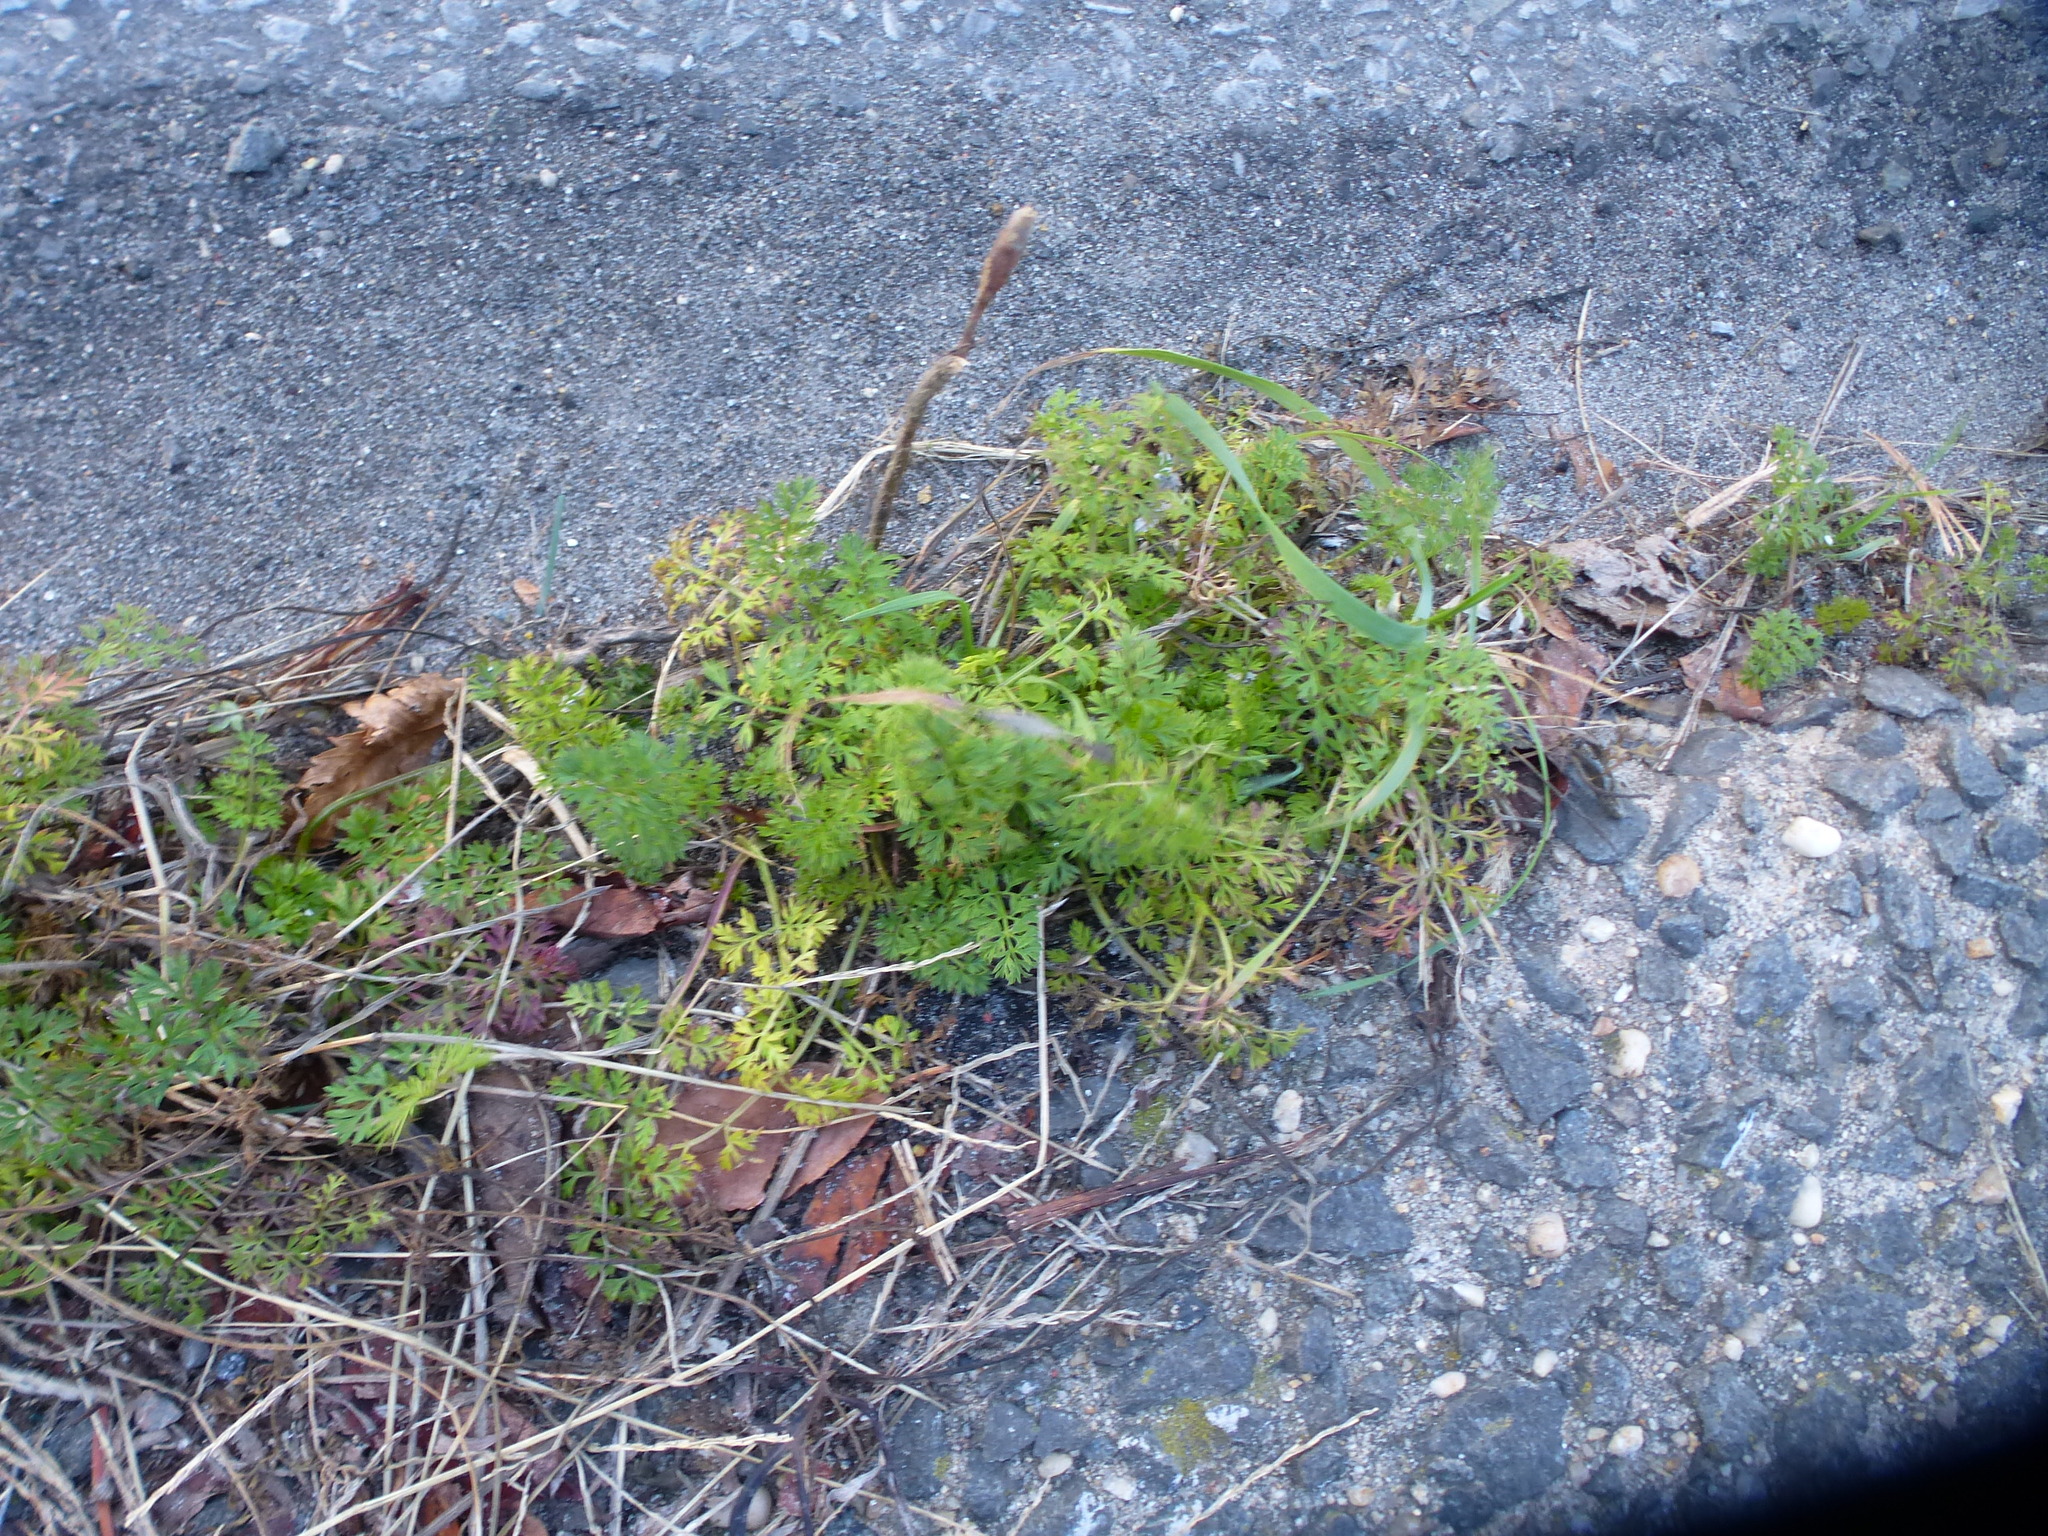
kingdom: Plantae
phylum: Tracheophyta
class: Magnoliopsida
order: Apiales
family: Apiaceae
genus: Daucus
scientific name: Daucus carota
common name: Wild carrot
